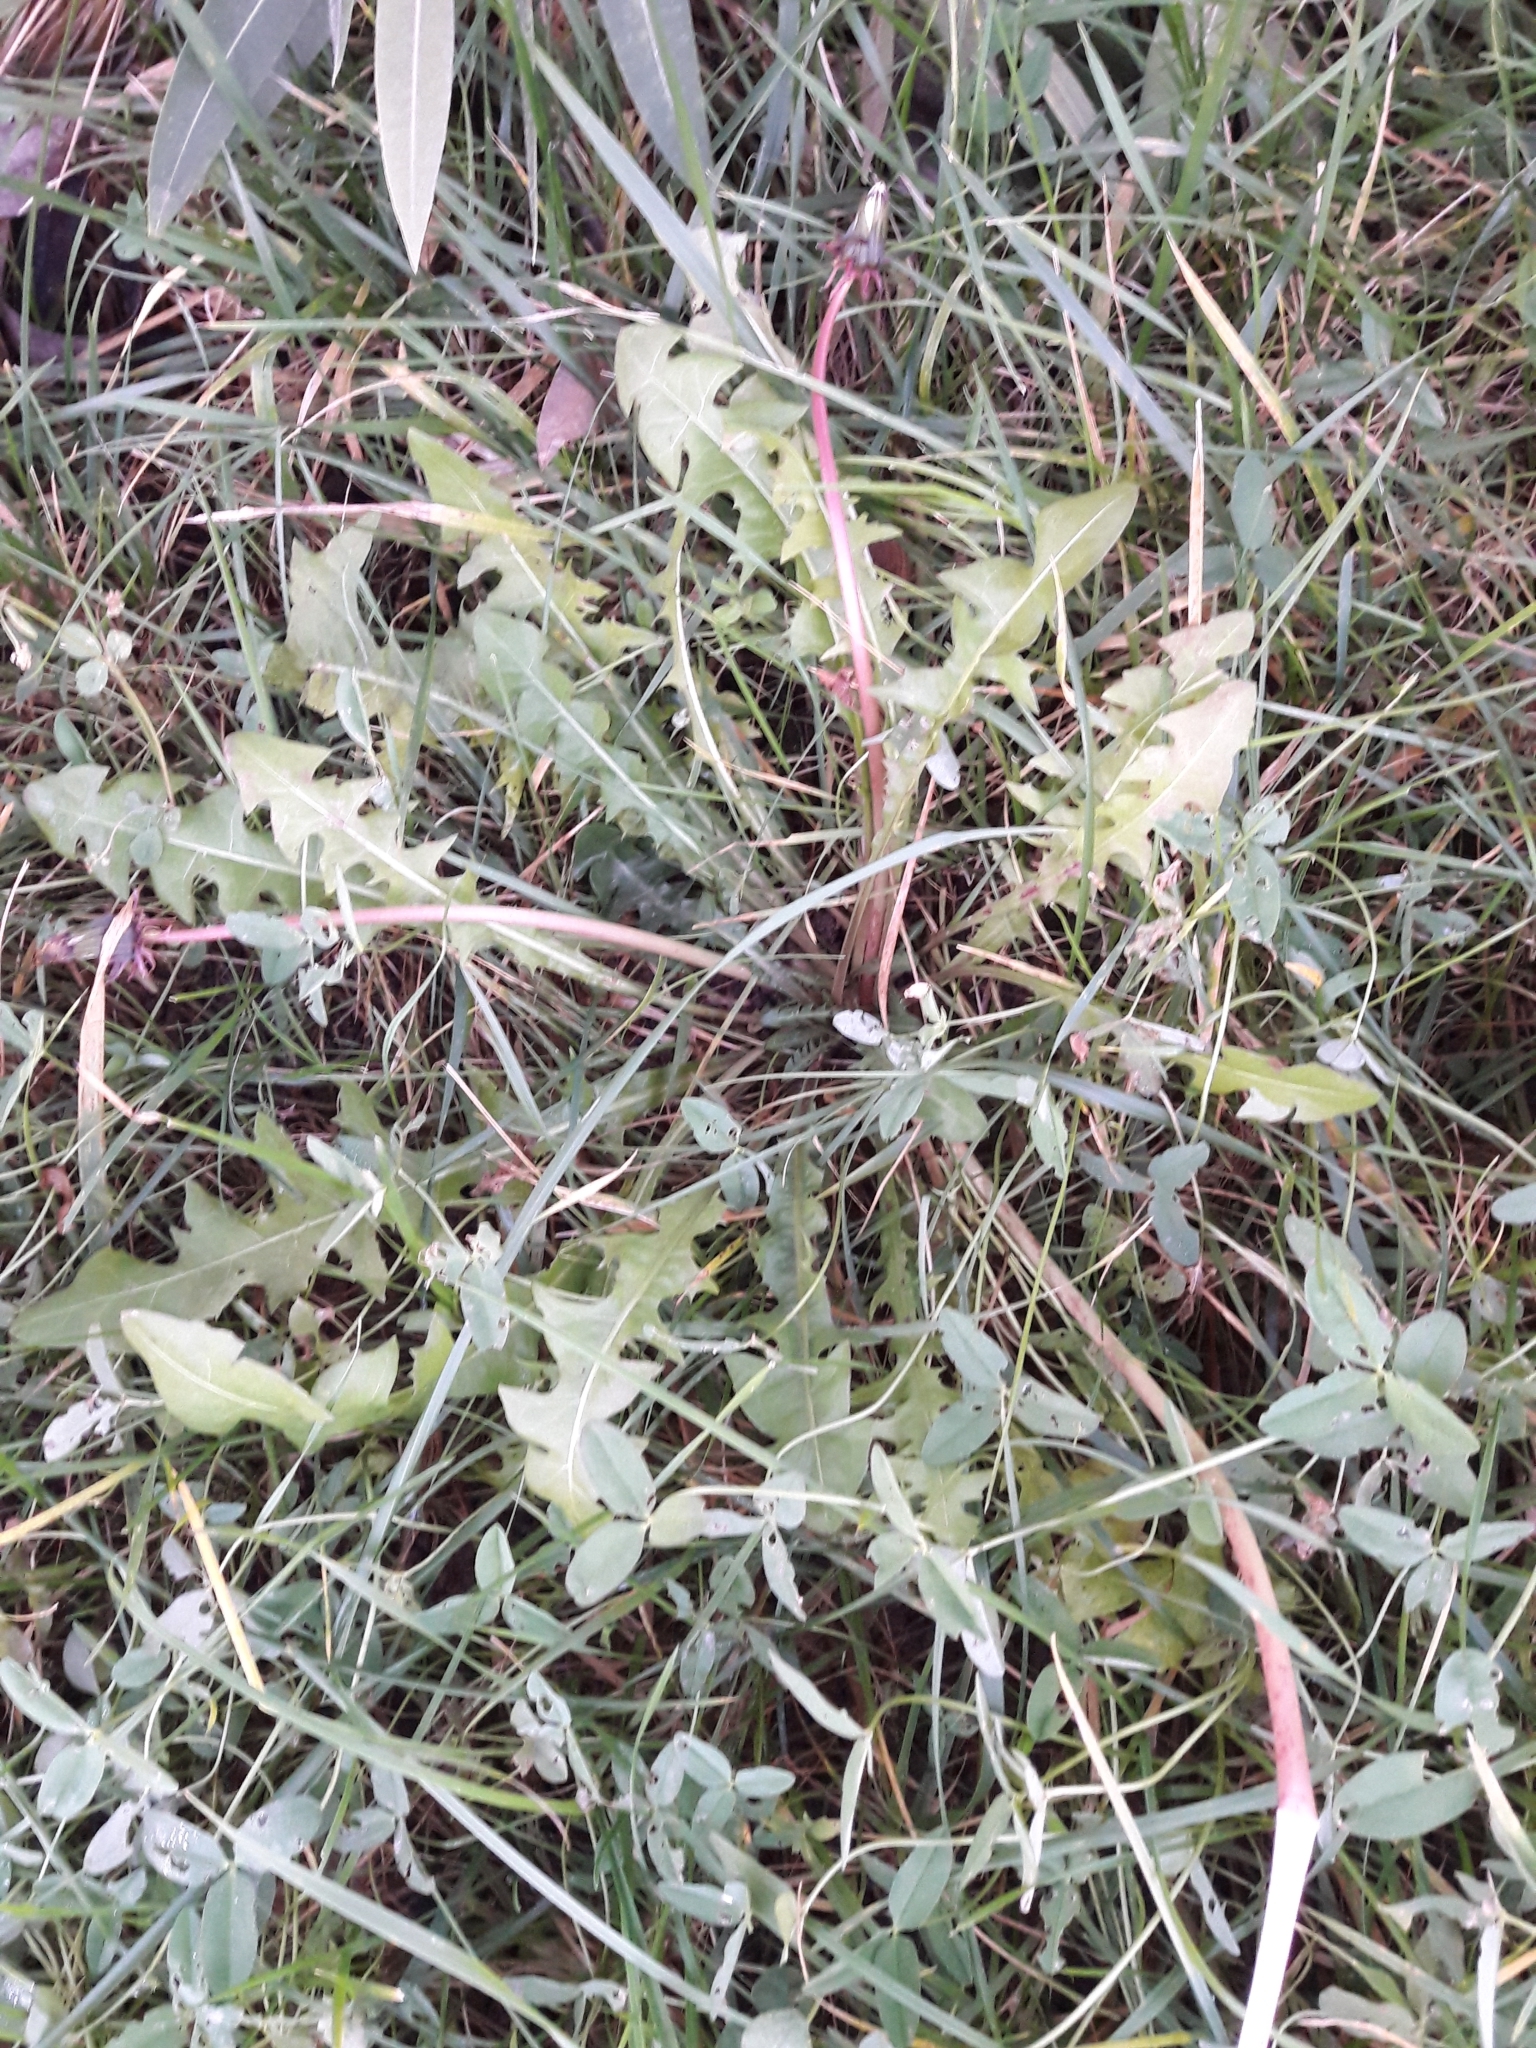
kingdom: Plantae
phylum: Tracheophyta
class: Magnoliopsida
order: Asterales
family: Asteraceae
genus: Taraxacum
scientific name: Taraxacum officinale
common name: Common dandelion
